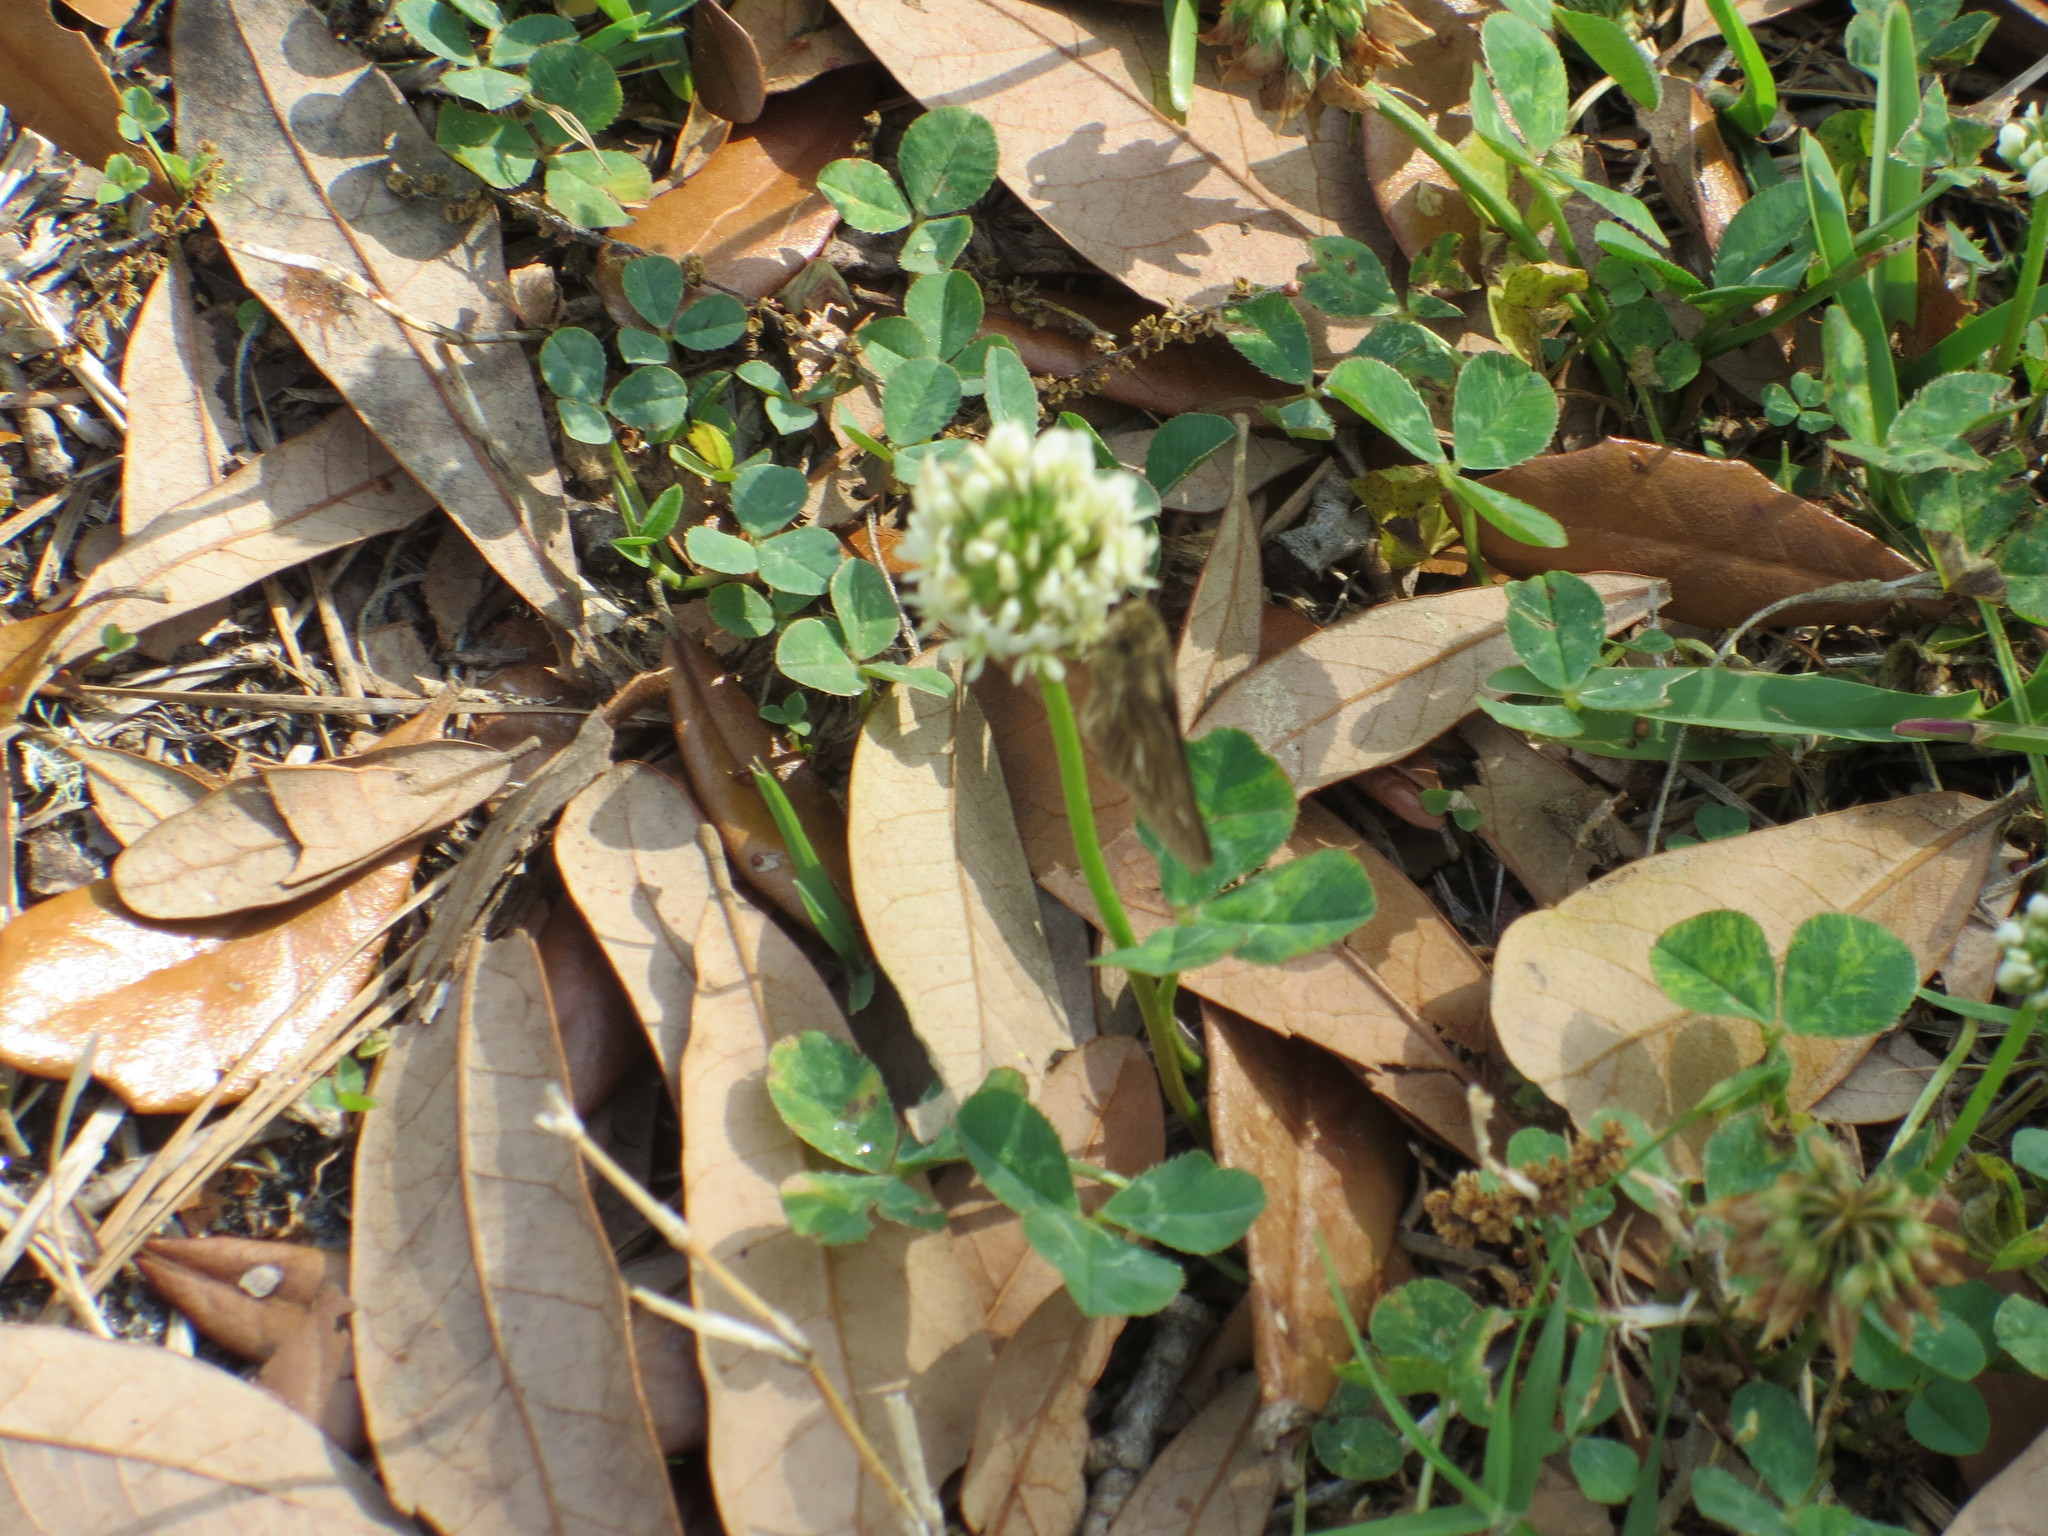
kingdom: Plantae
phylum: Tracheophyta
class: Magnoliopsida
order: Fabales
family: Fabaceae
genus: Trifolium
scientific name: Trifolium repens
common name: White clover
